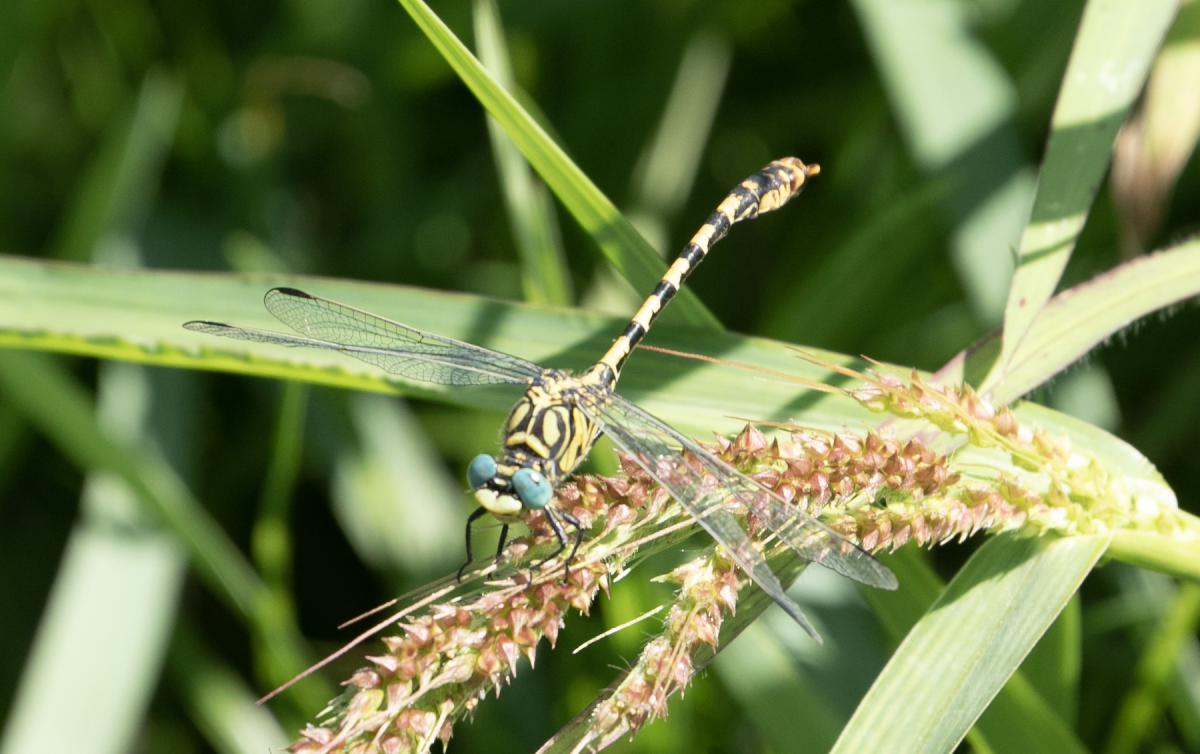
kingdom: Animalia
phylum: Arthropoda
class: Insecta
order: Odonata
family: Gomphidae
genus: Onychogomphus
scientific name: Onychogomphus forcipatus
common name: Small pincertail
